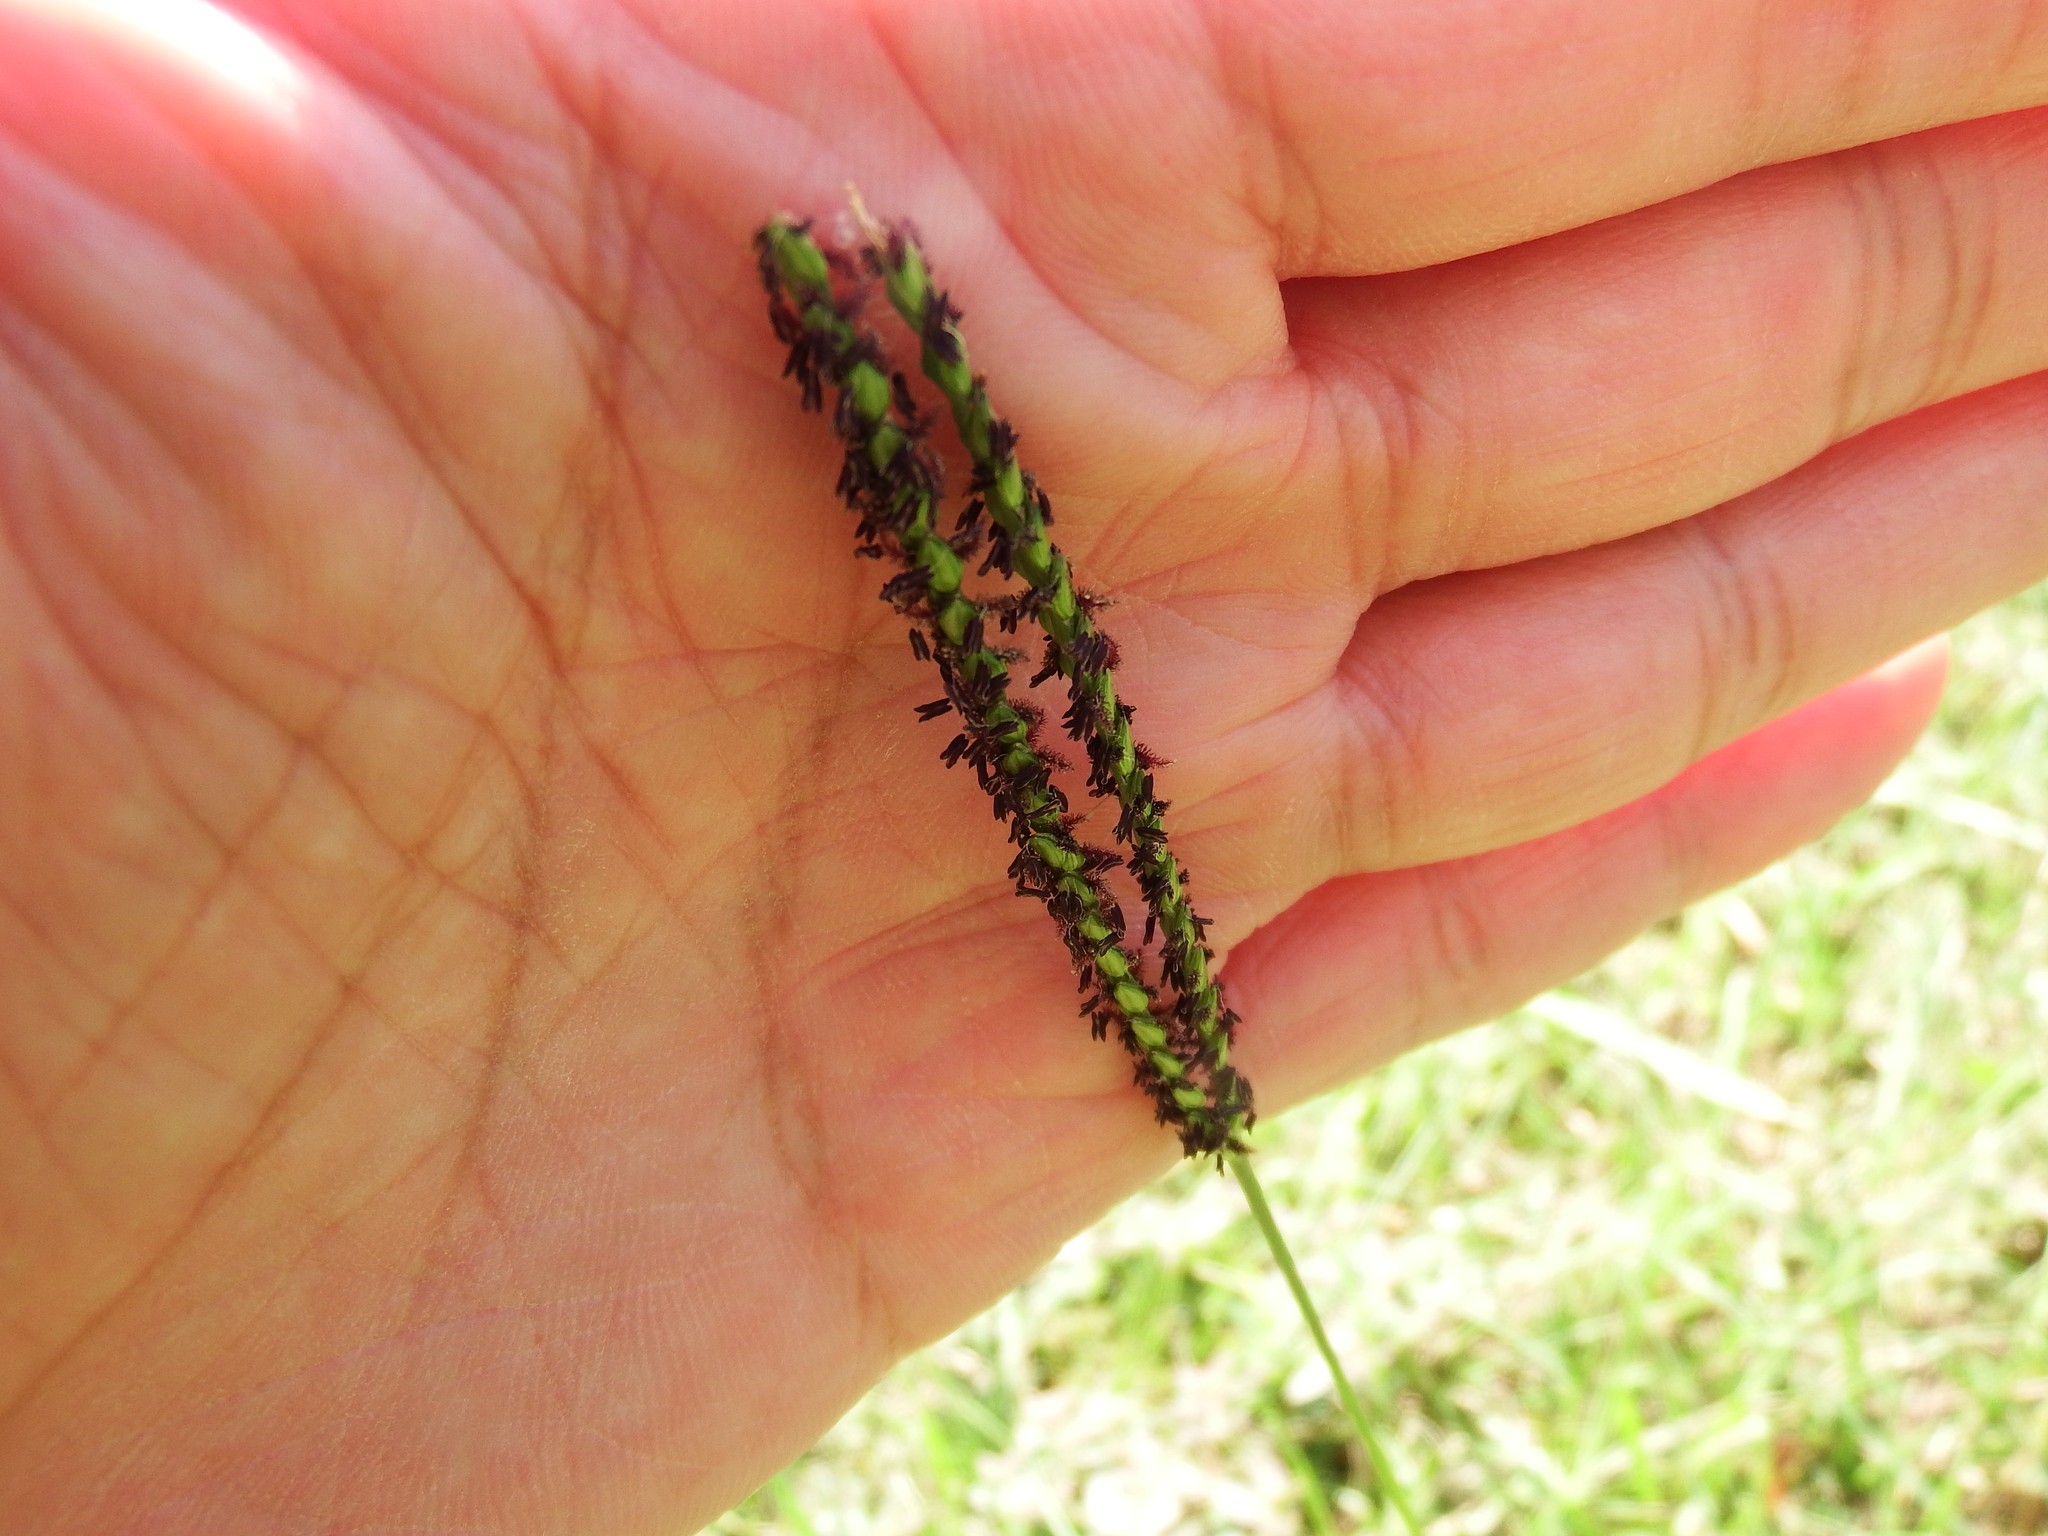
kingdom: Plantae
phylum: Tracheophyta
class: Liliopsida
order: Poales
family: Poaceae
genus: Paspalum
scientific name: Paspalum notatum
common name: Bahiagrass
